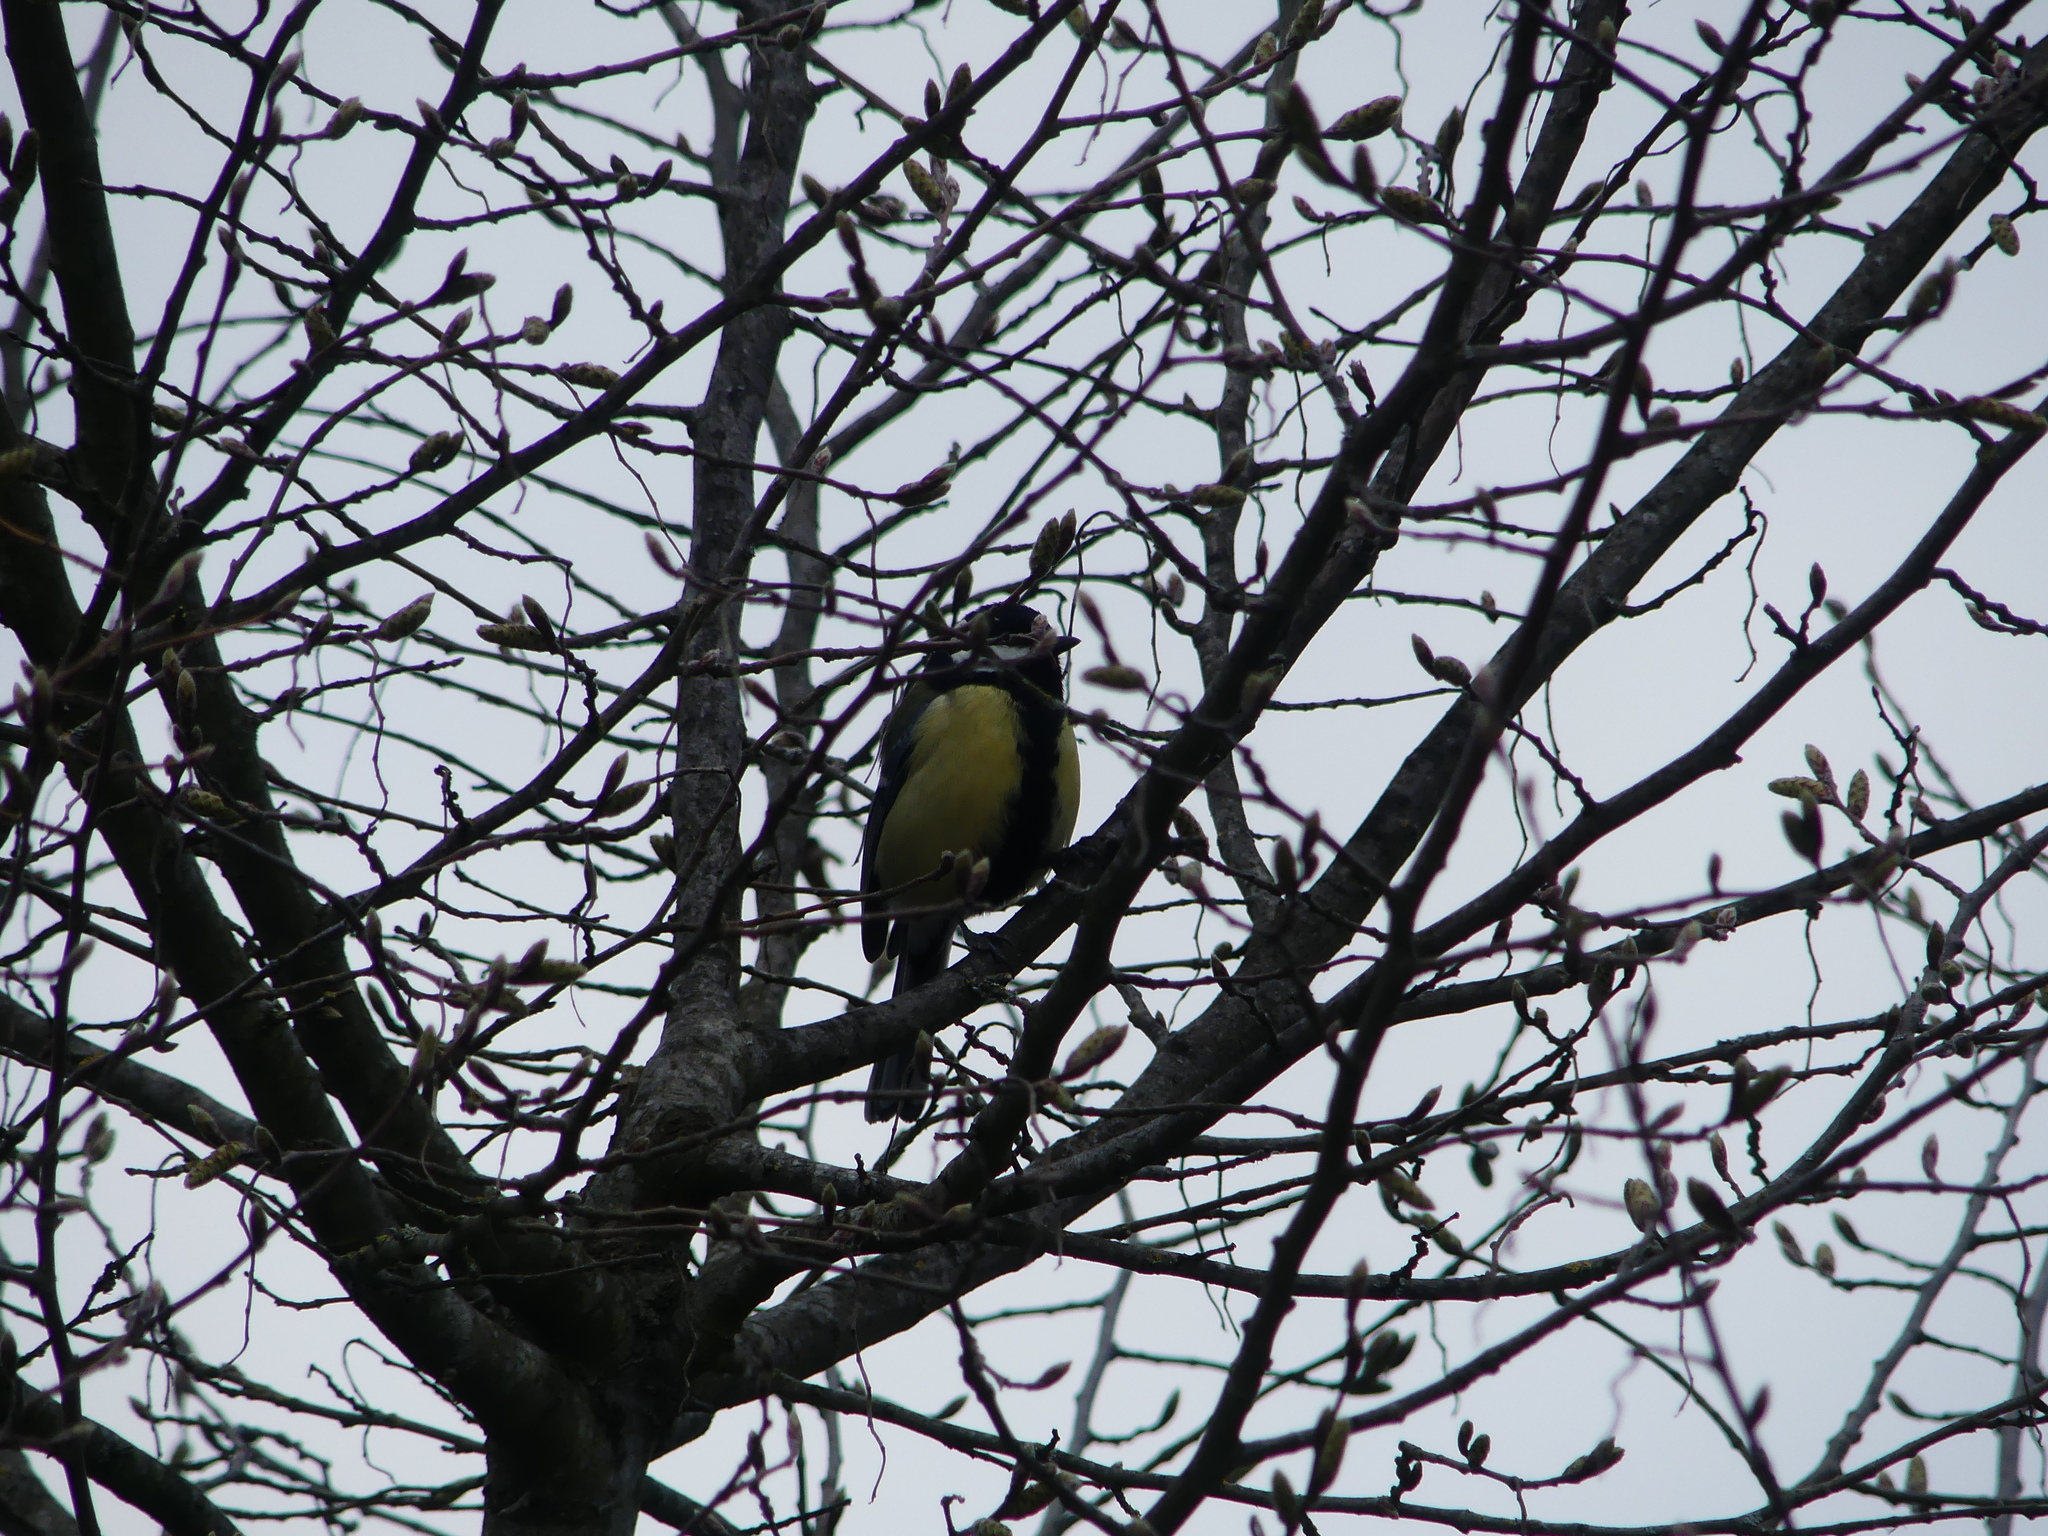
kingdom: Animalia
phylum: Chordata
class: Aves
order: Passeriformes
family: Paridae
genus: Parus
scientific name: Parus major
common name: Great tit
